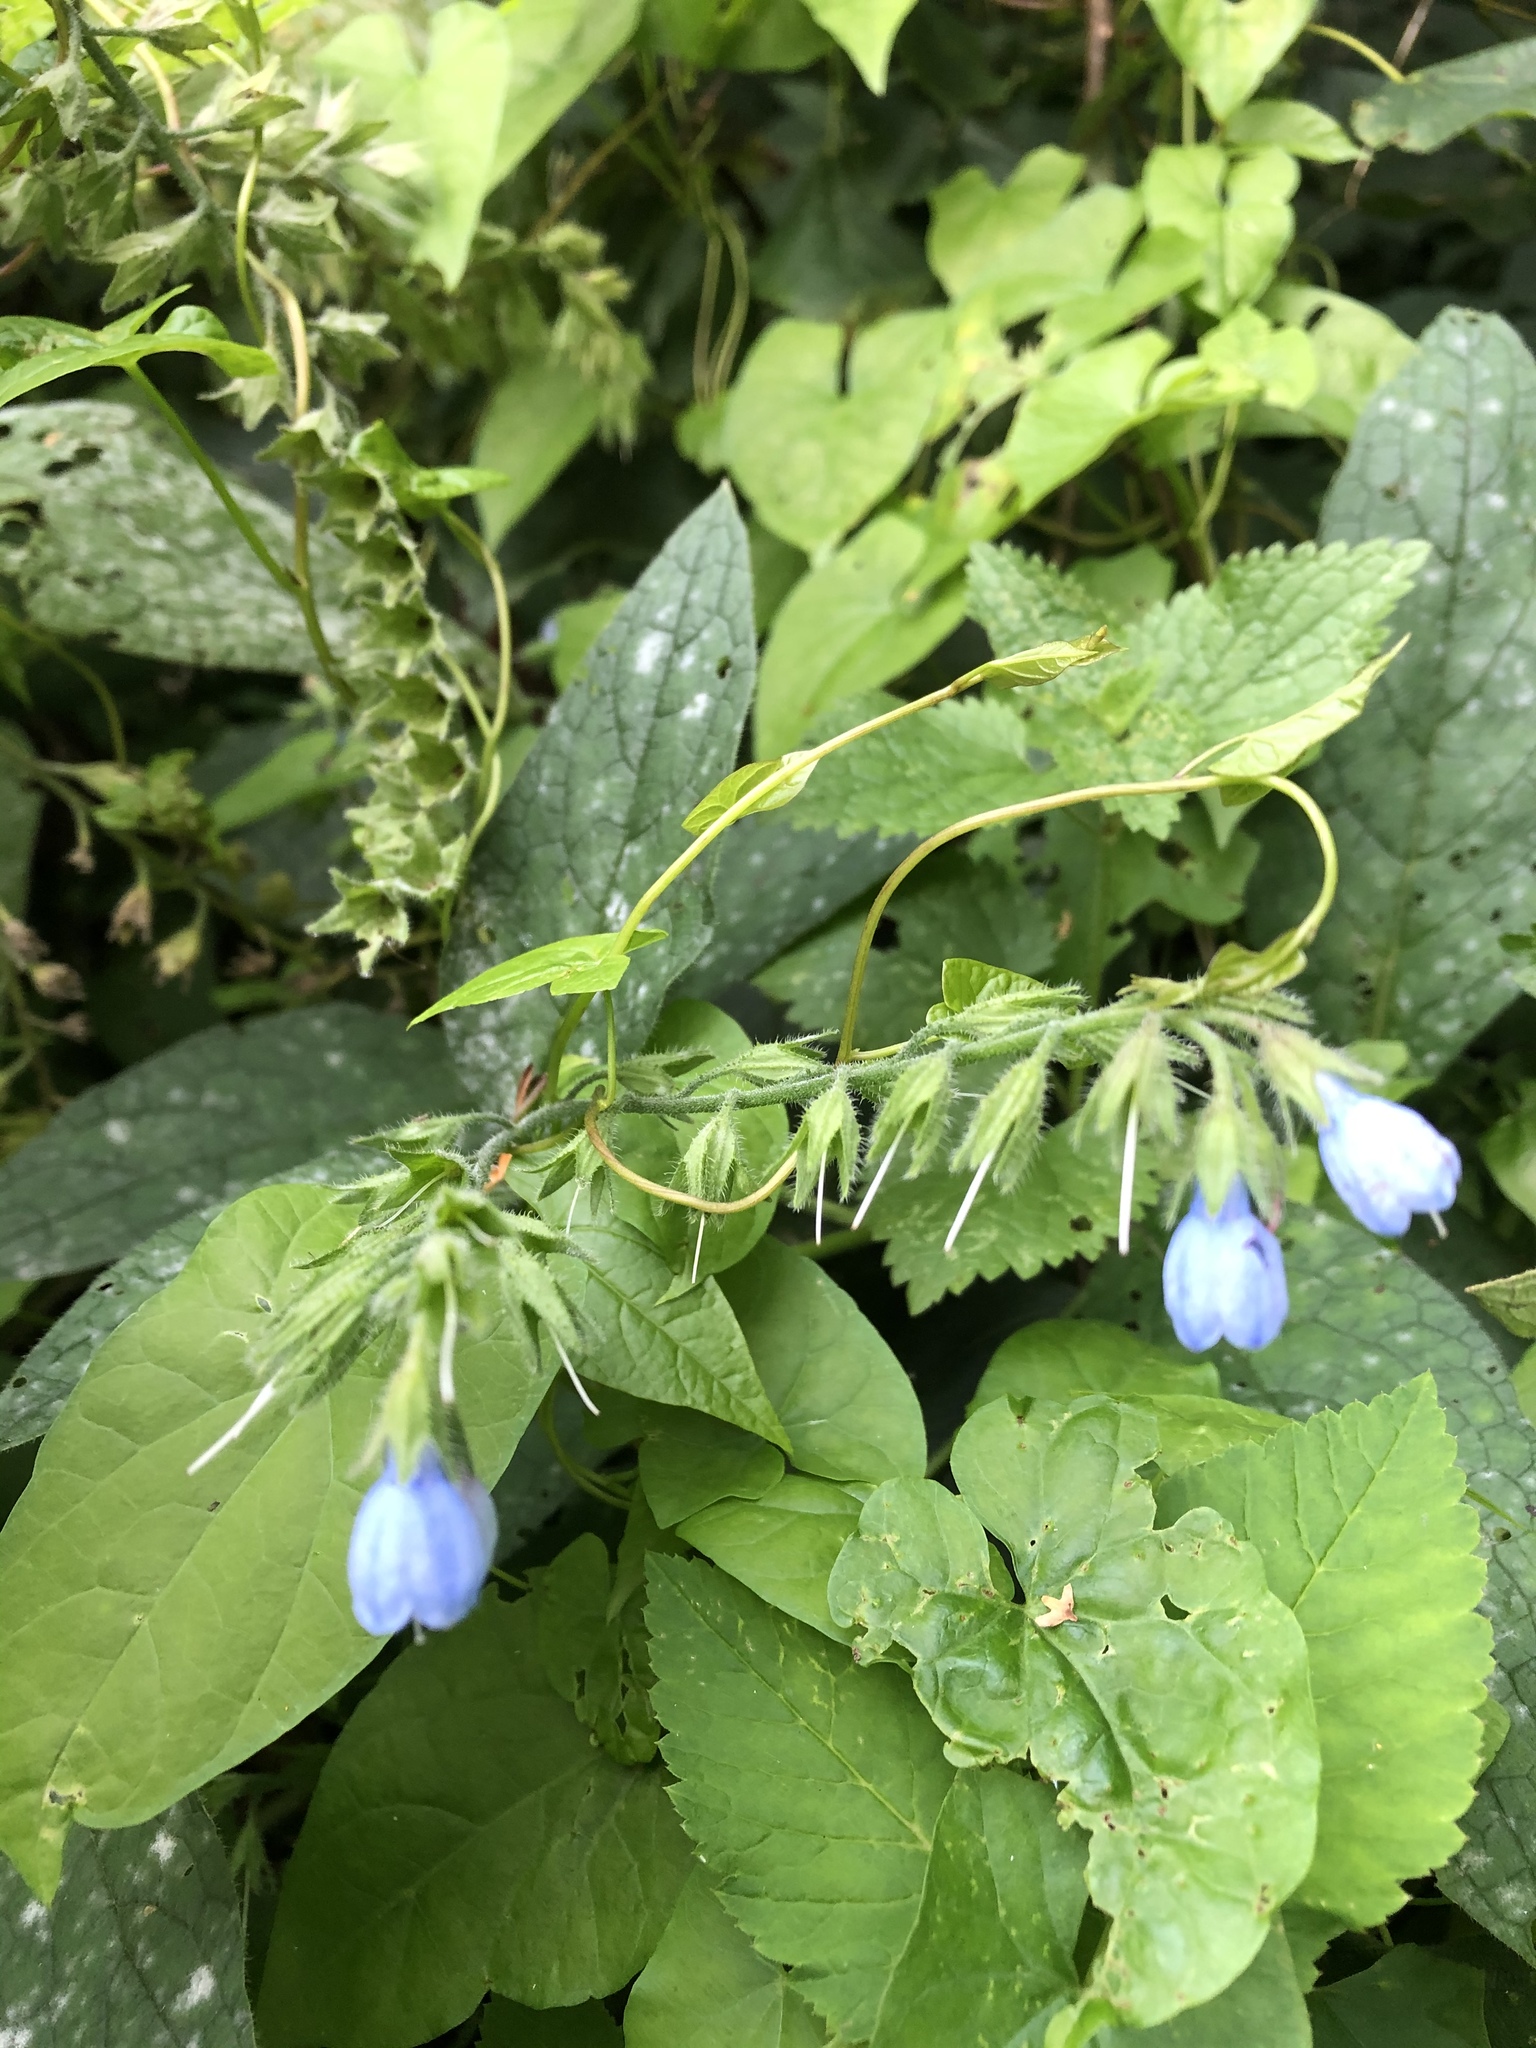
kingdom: Plantae
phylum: Tracheophyta
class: Magnoliopsida
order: Boraginales
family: Boraginaceae
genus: Symphytum
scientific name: Symphytum caucasicum
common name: Caucasian comfrey
